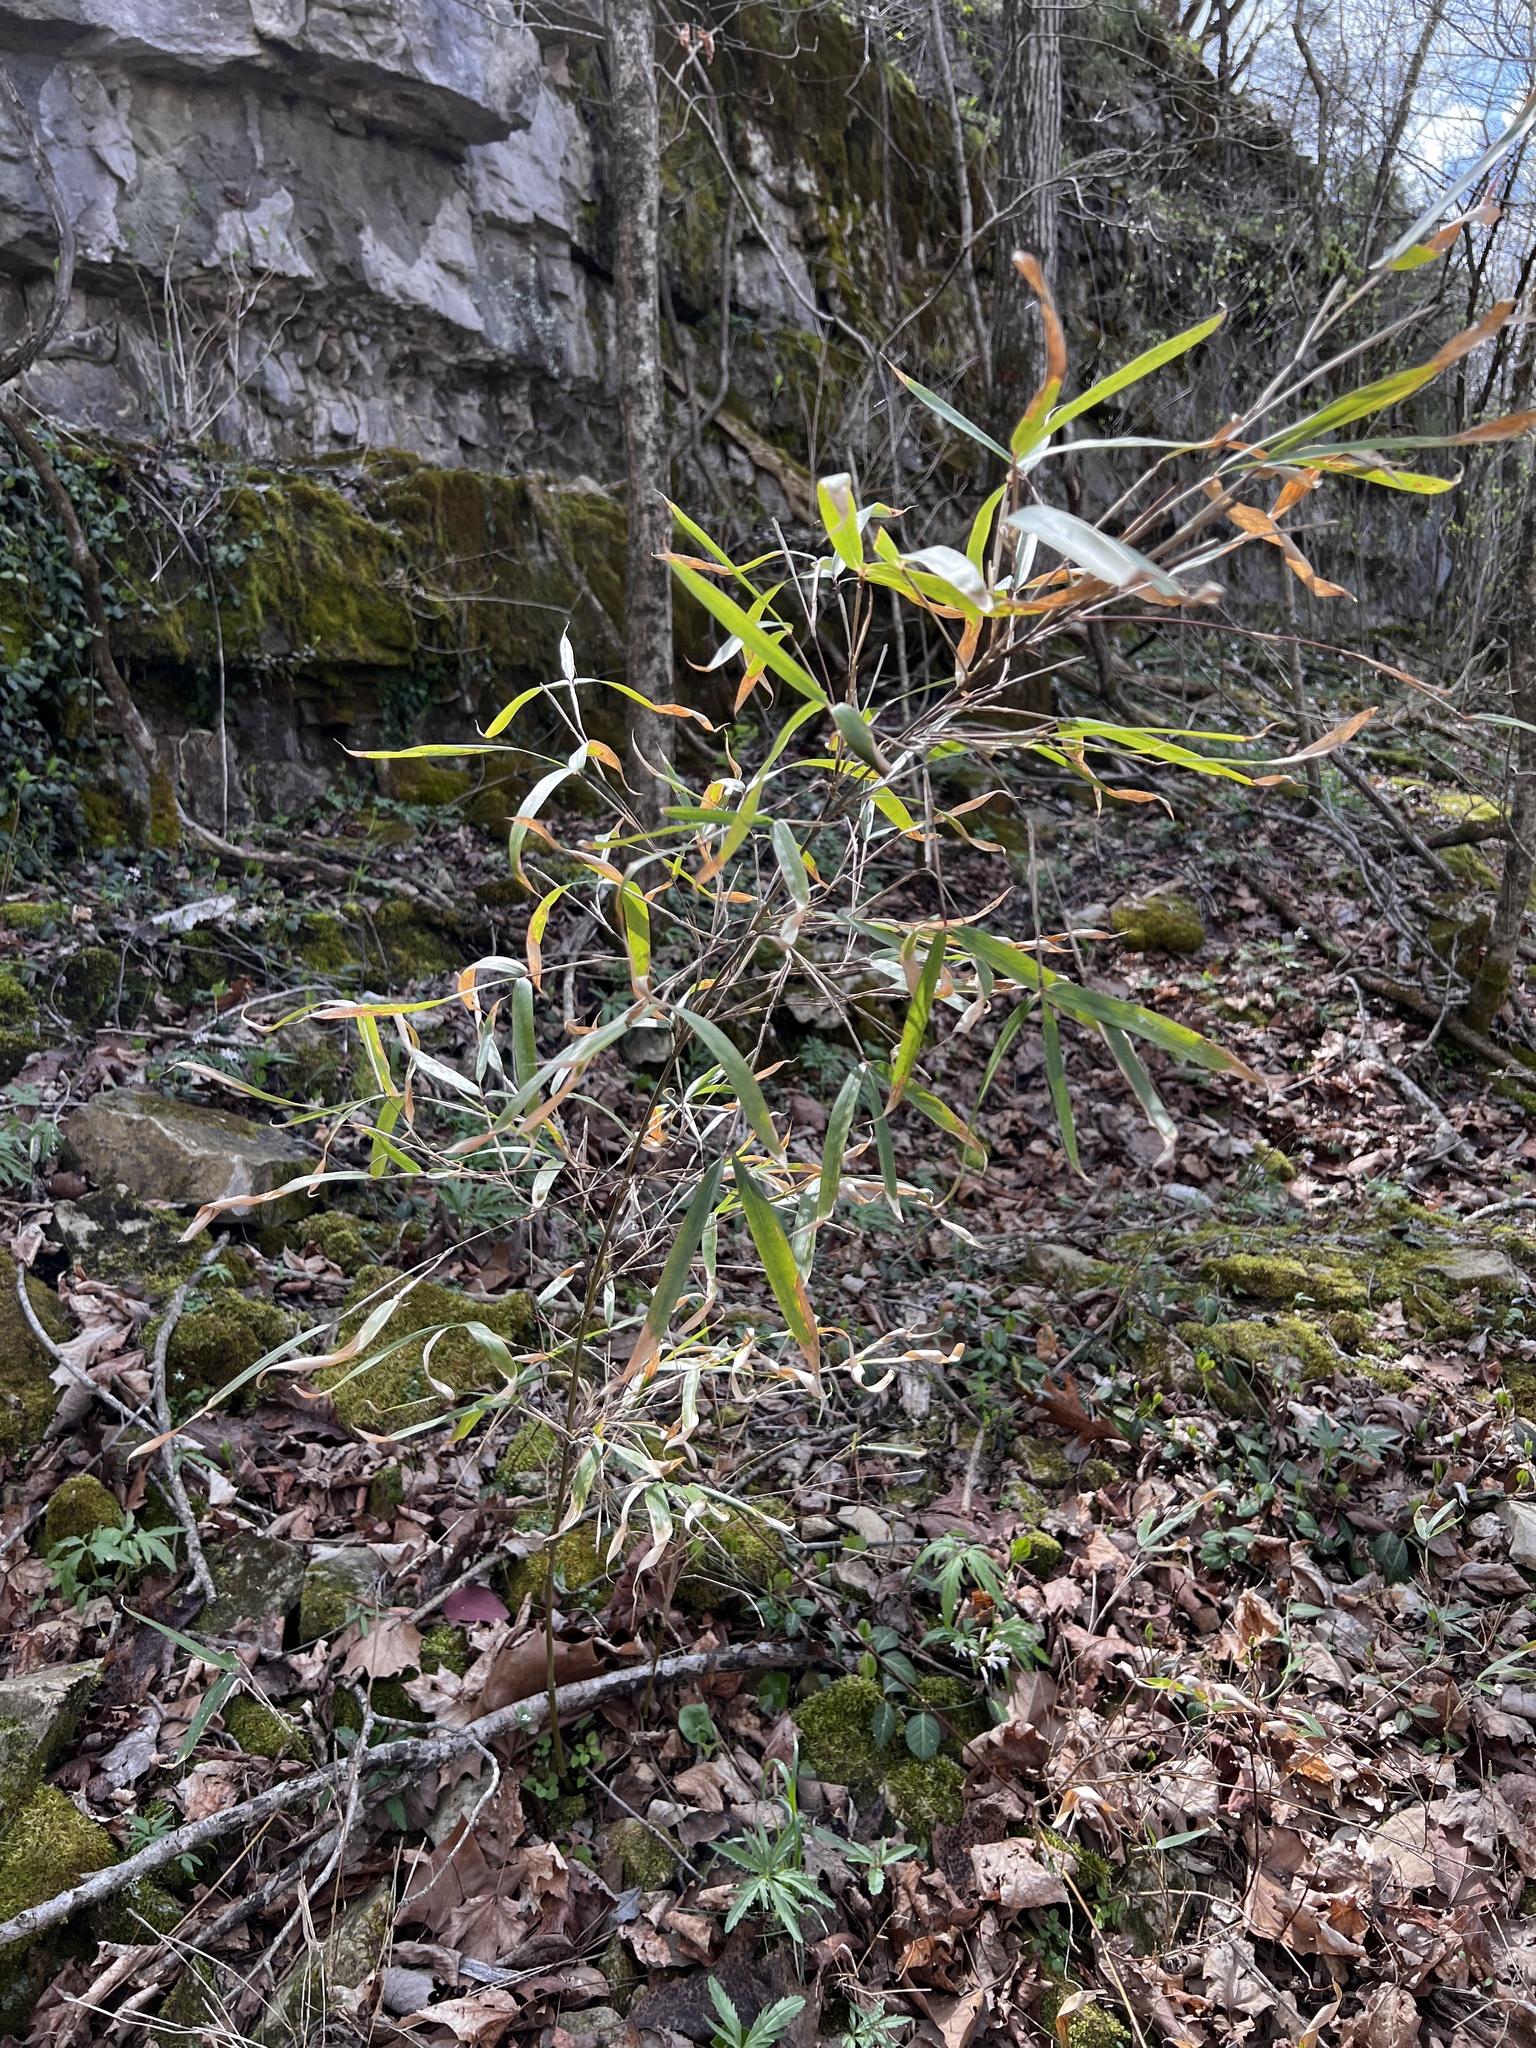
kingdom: Plantae
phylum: Tracheophyta
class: Liliopsida
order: Poales
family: Poaceae
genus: Arundinaria
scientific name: Arundinaria gigantea
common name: Giant cane
